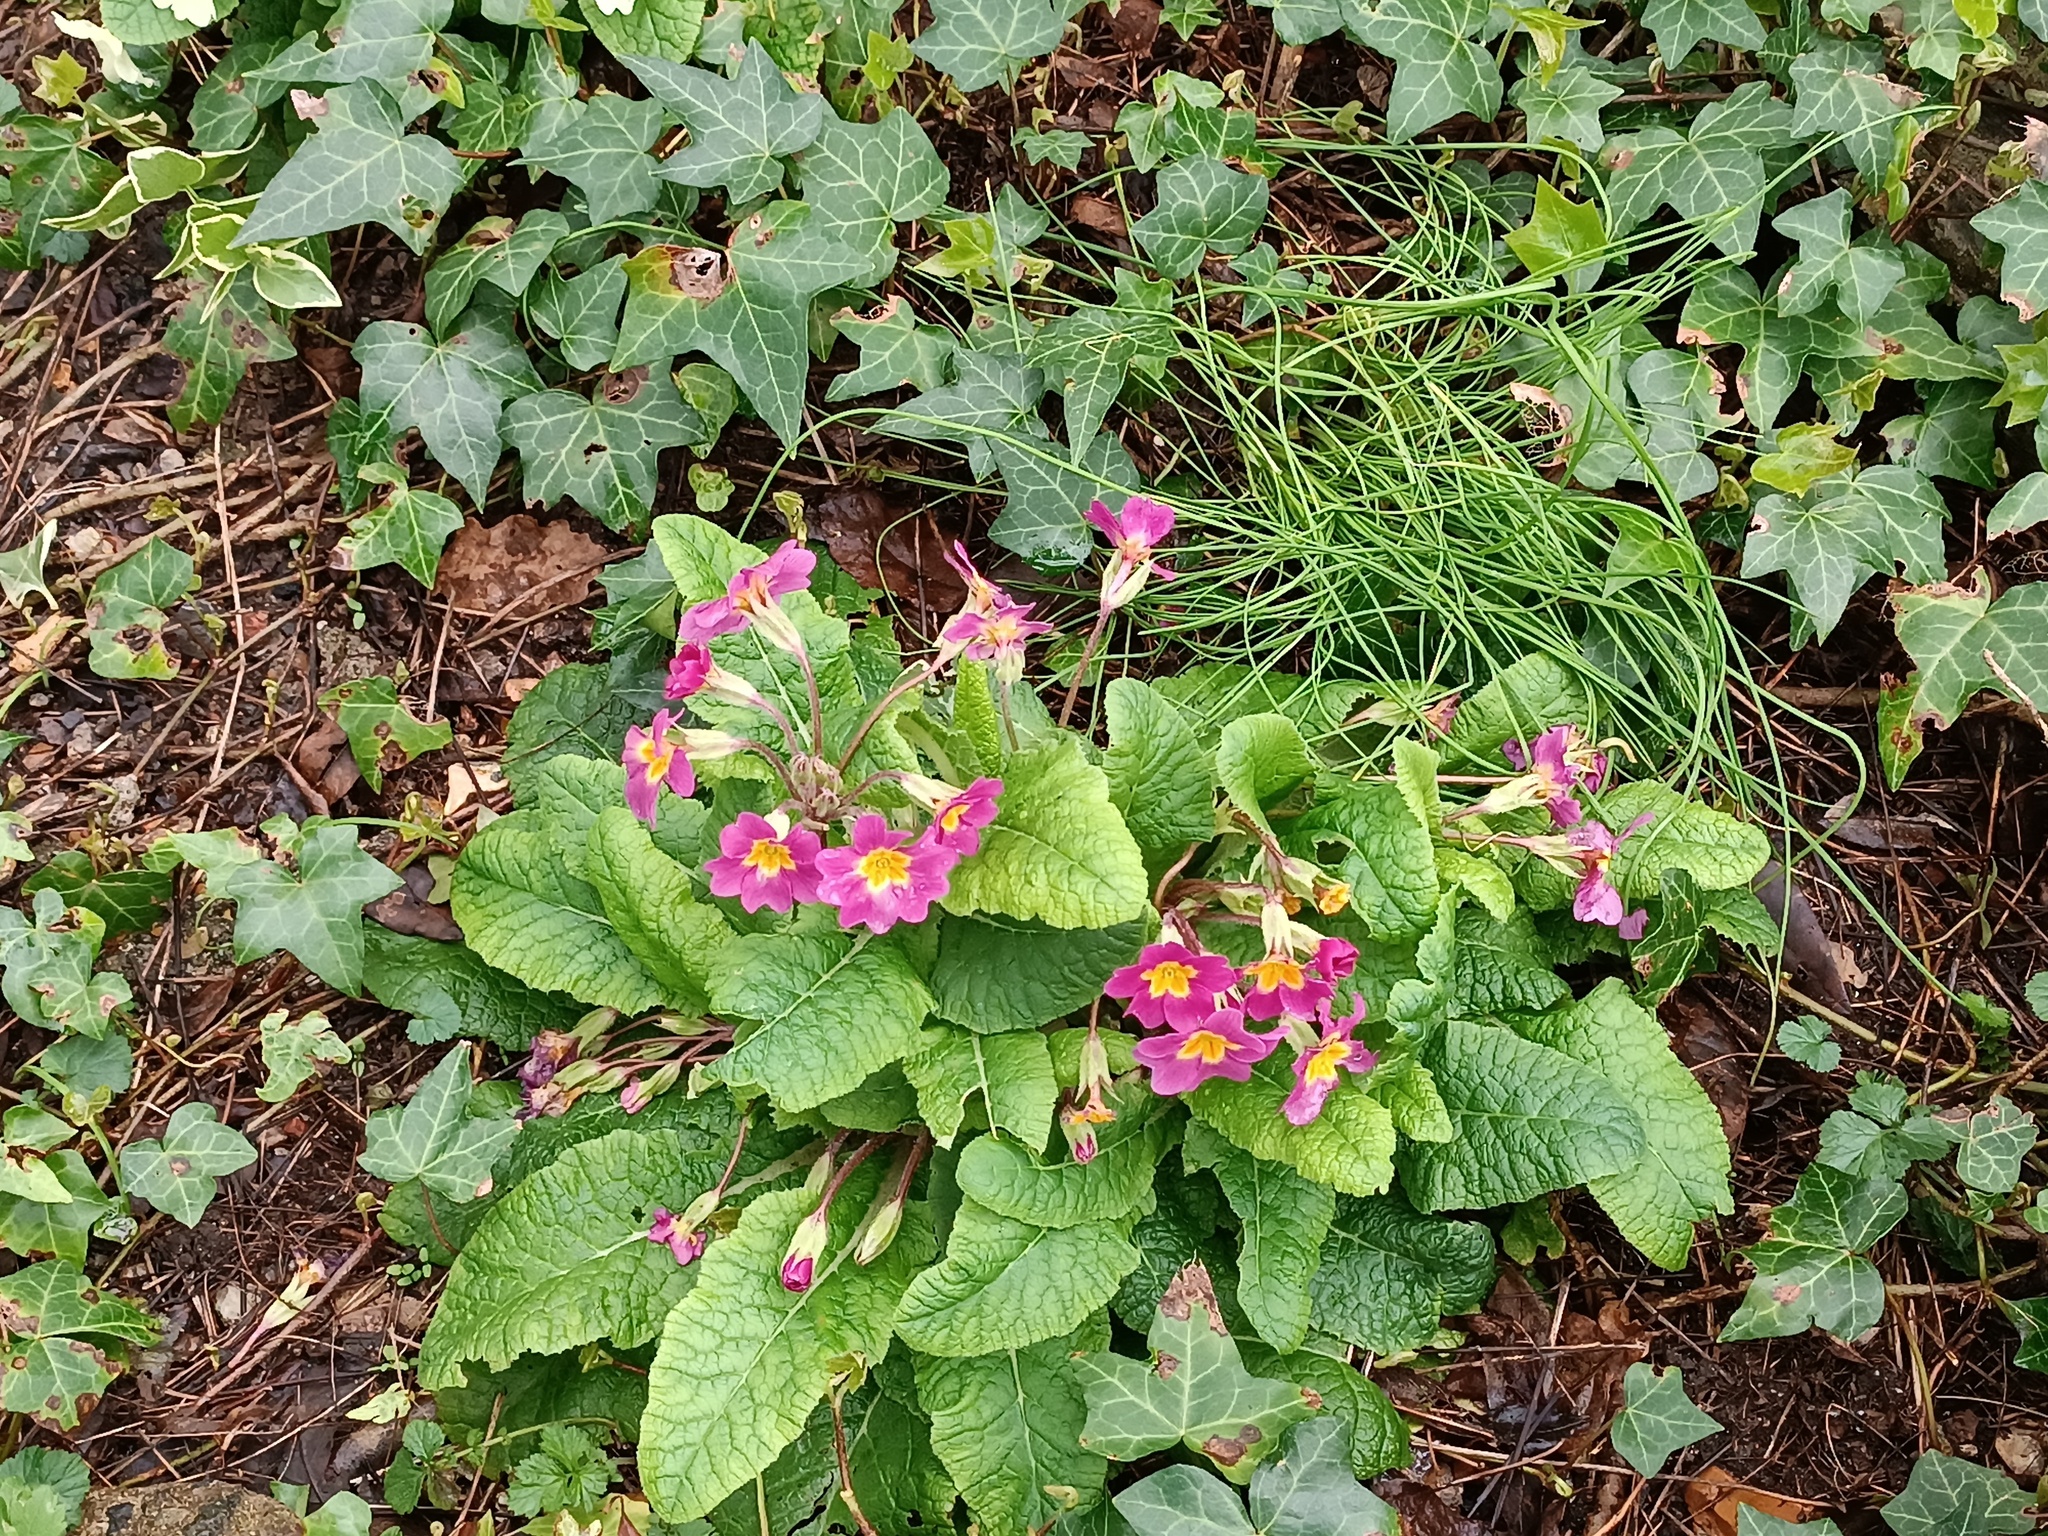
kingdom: Plantae
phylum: Tracheophyta
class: Magnoliopsida
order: Ericales
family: Primulaceae
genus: Primula
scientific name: Primula vulgaris
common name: Primrose
